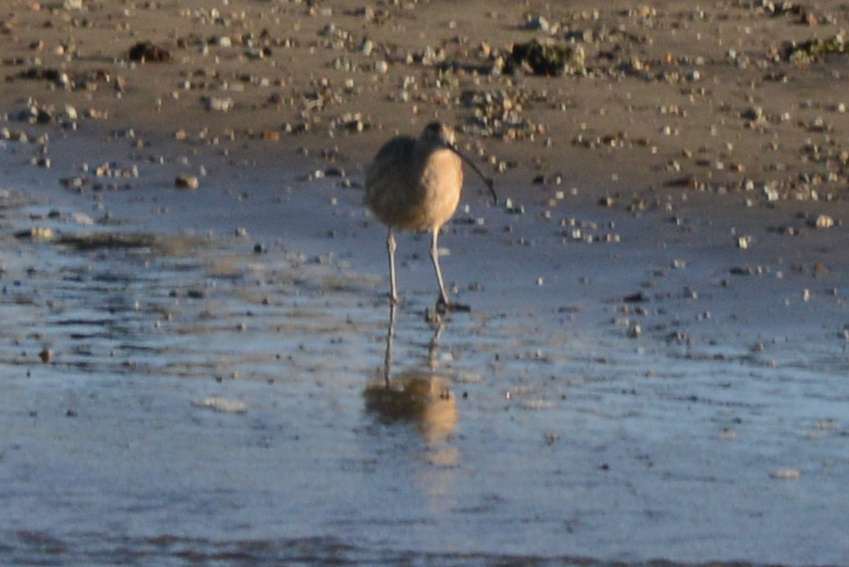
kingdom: Animalia
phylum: Chordata
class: Aves
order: Charadriiformes
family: Scolopacidae
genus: Numenius
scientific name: Numenius americanus
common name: Long-billed curlew
